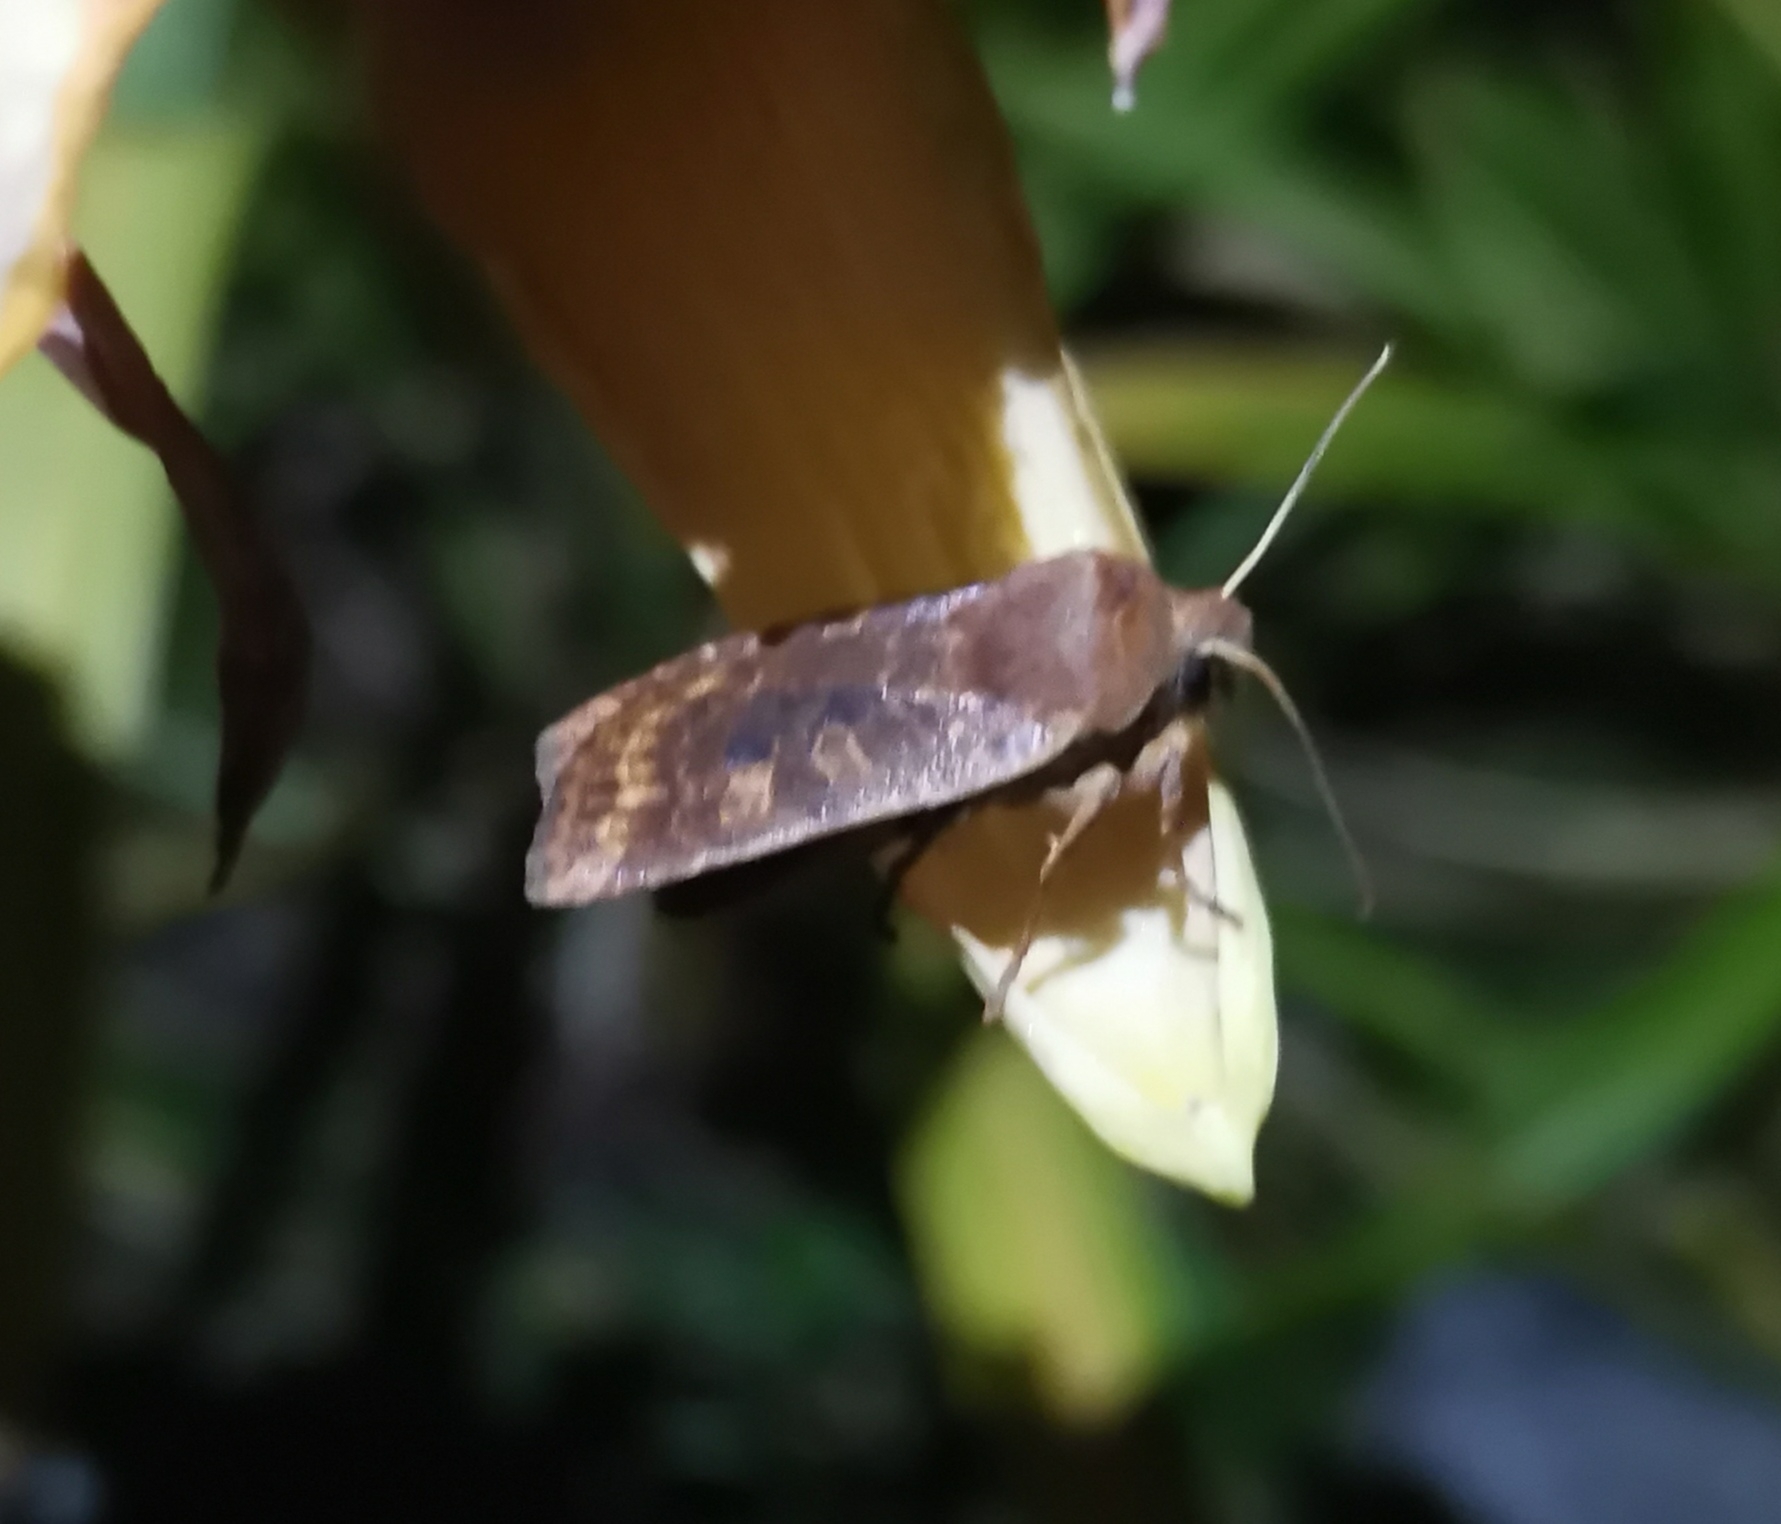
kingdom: Animalia
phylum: Arthropoda
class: Insecta
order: Lepidoptera
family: Noctuidae
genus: Conistra
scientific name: Conistra vaccinii
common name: Chestnut
